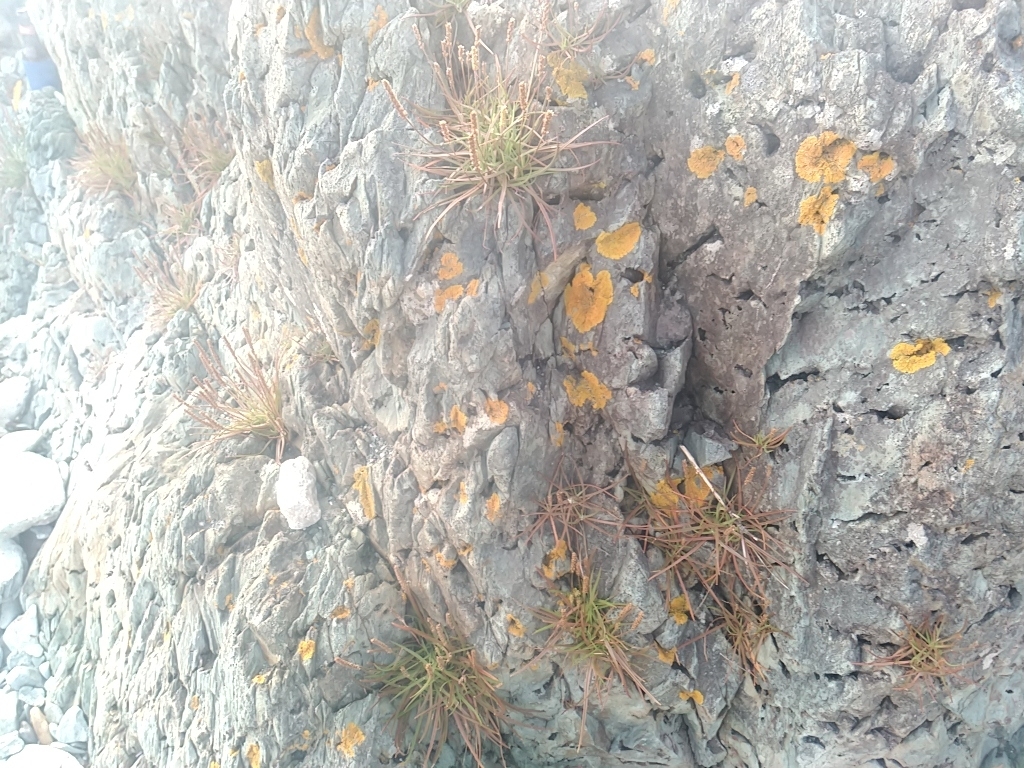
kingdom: Plantae
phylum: Tracheophyta
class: Magnoliopsida
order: Lamiales
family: Plantaginaceae
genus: Plantago
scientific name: Plantago maritima
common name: Sea plantain
